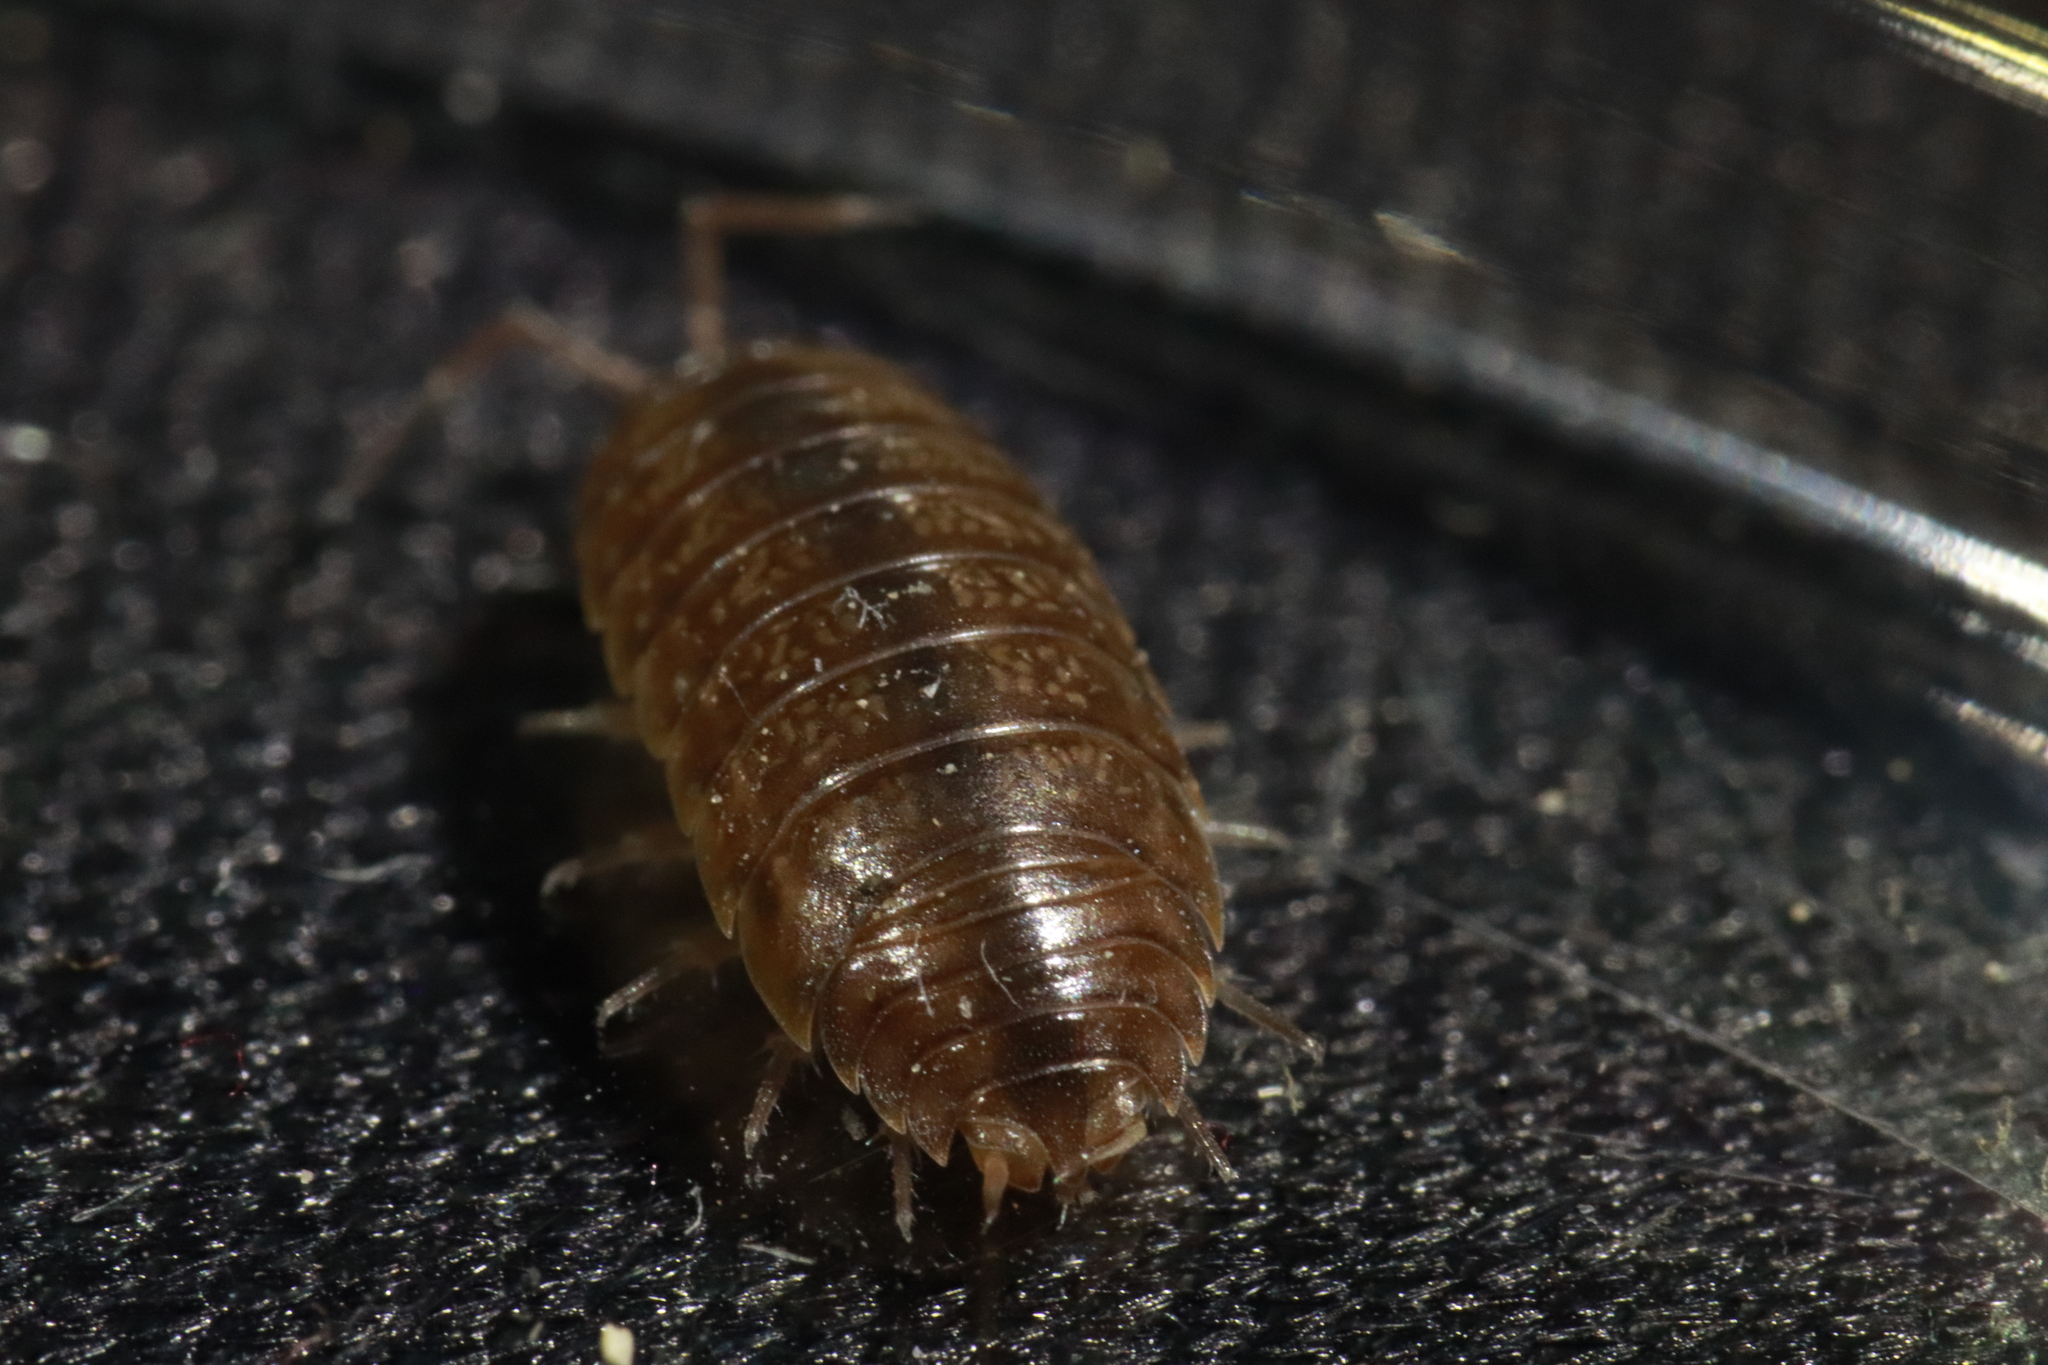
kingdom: Animalia
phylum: Arthropoda
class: Malacostraca
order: Isopoda
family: Porcellionidae
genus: Porcellio
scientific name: Porcellio gallicus
